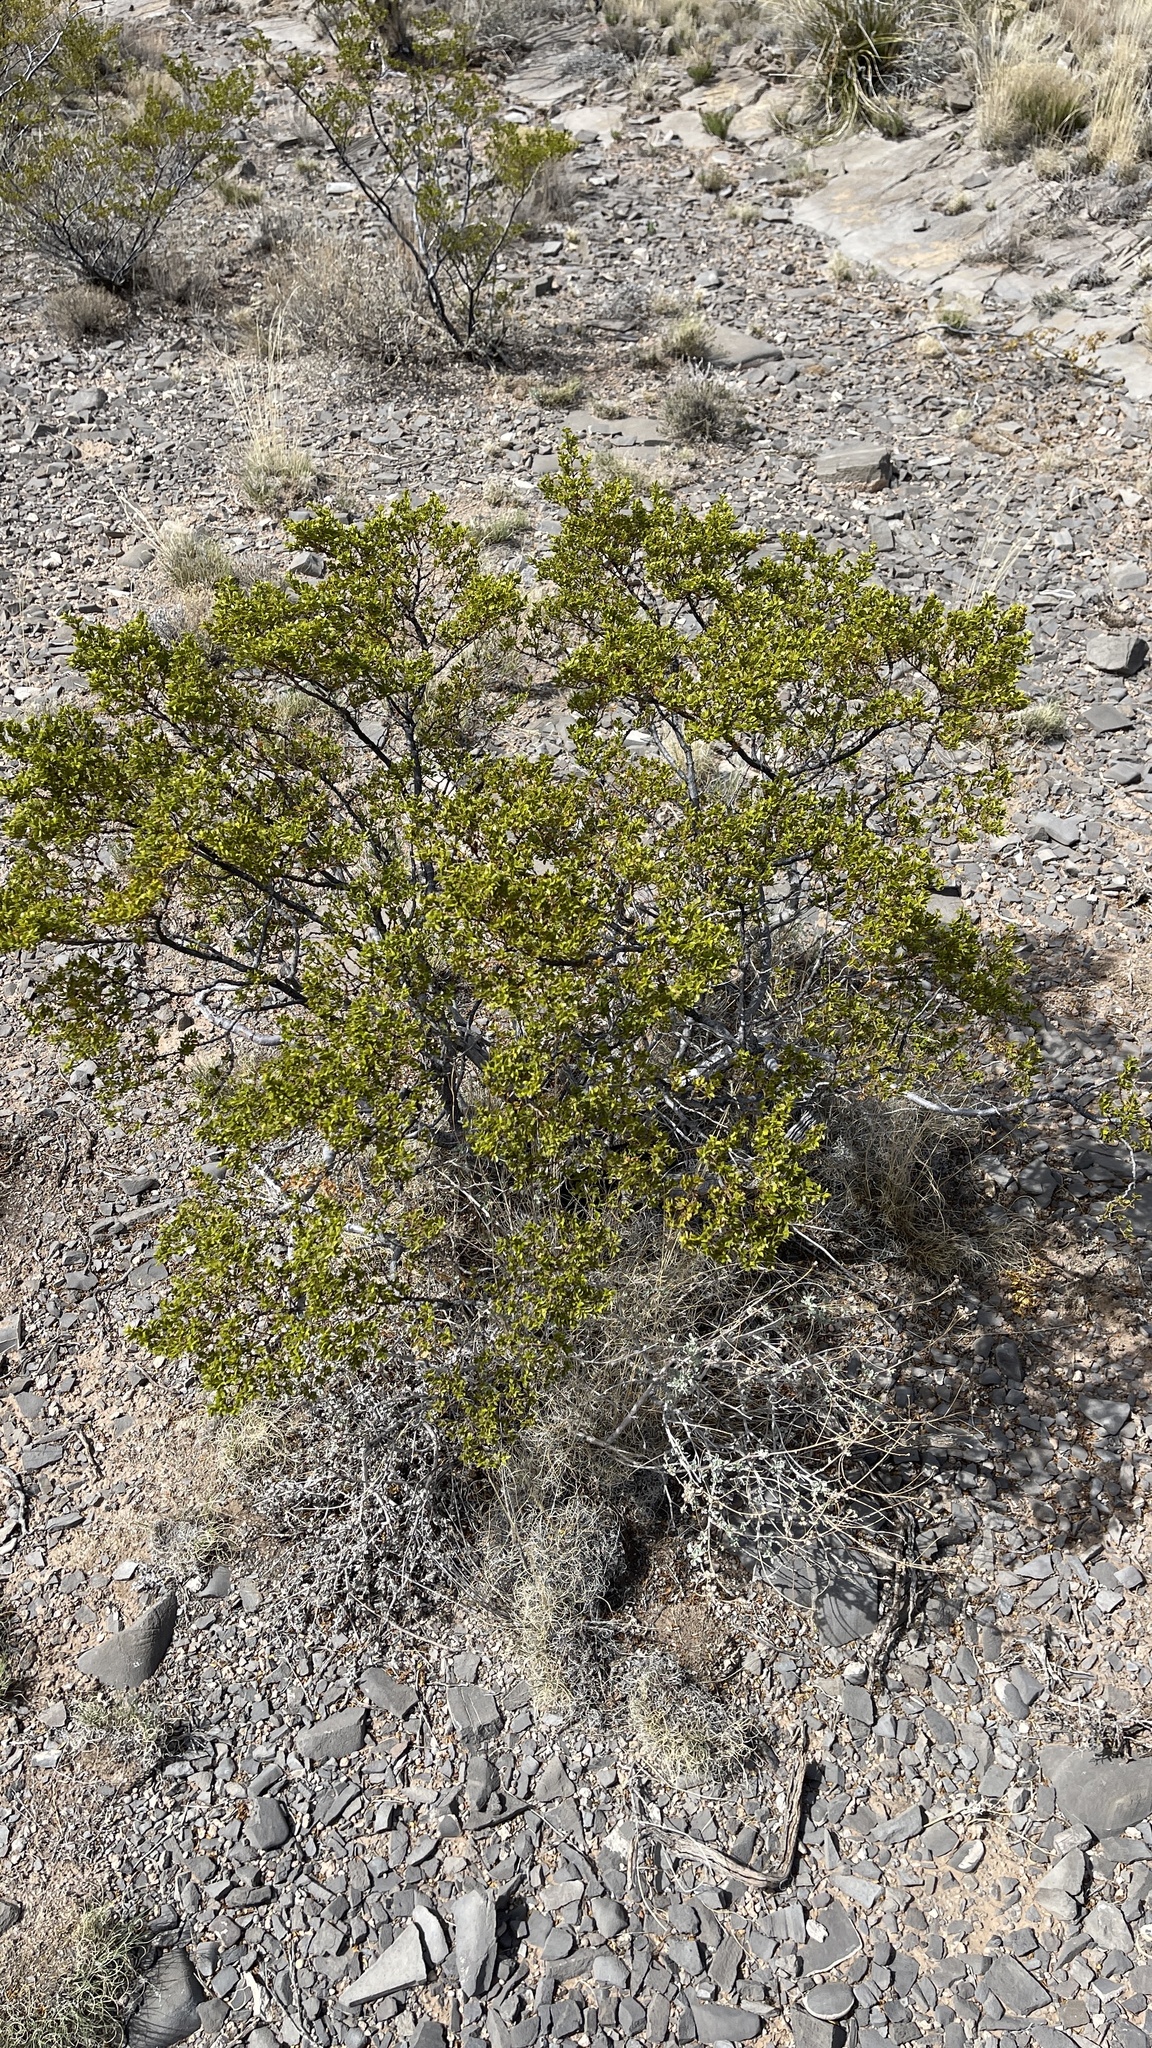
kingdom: Plantae
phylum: Tracheophyta
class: Magnoliopsida
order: Zygophyllales
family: Zygophyllaceae
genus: Larrea
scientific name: Larrea tridentata
